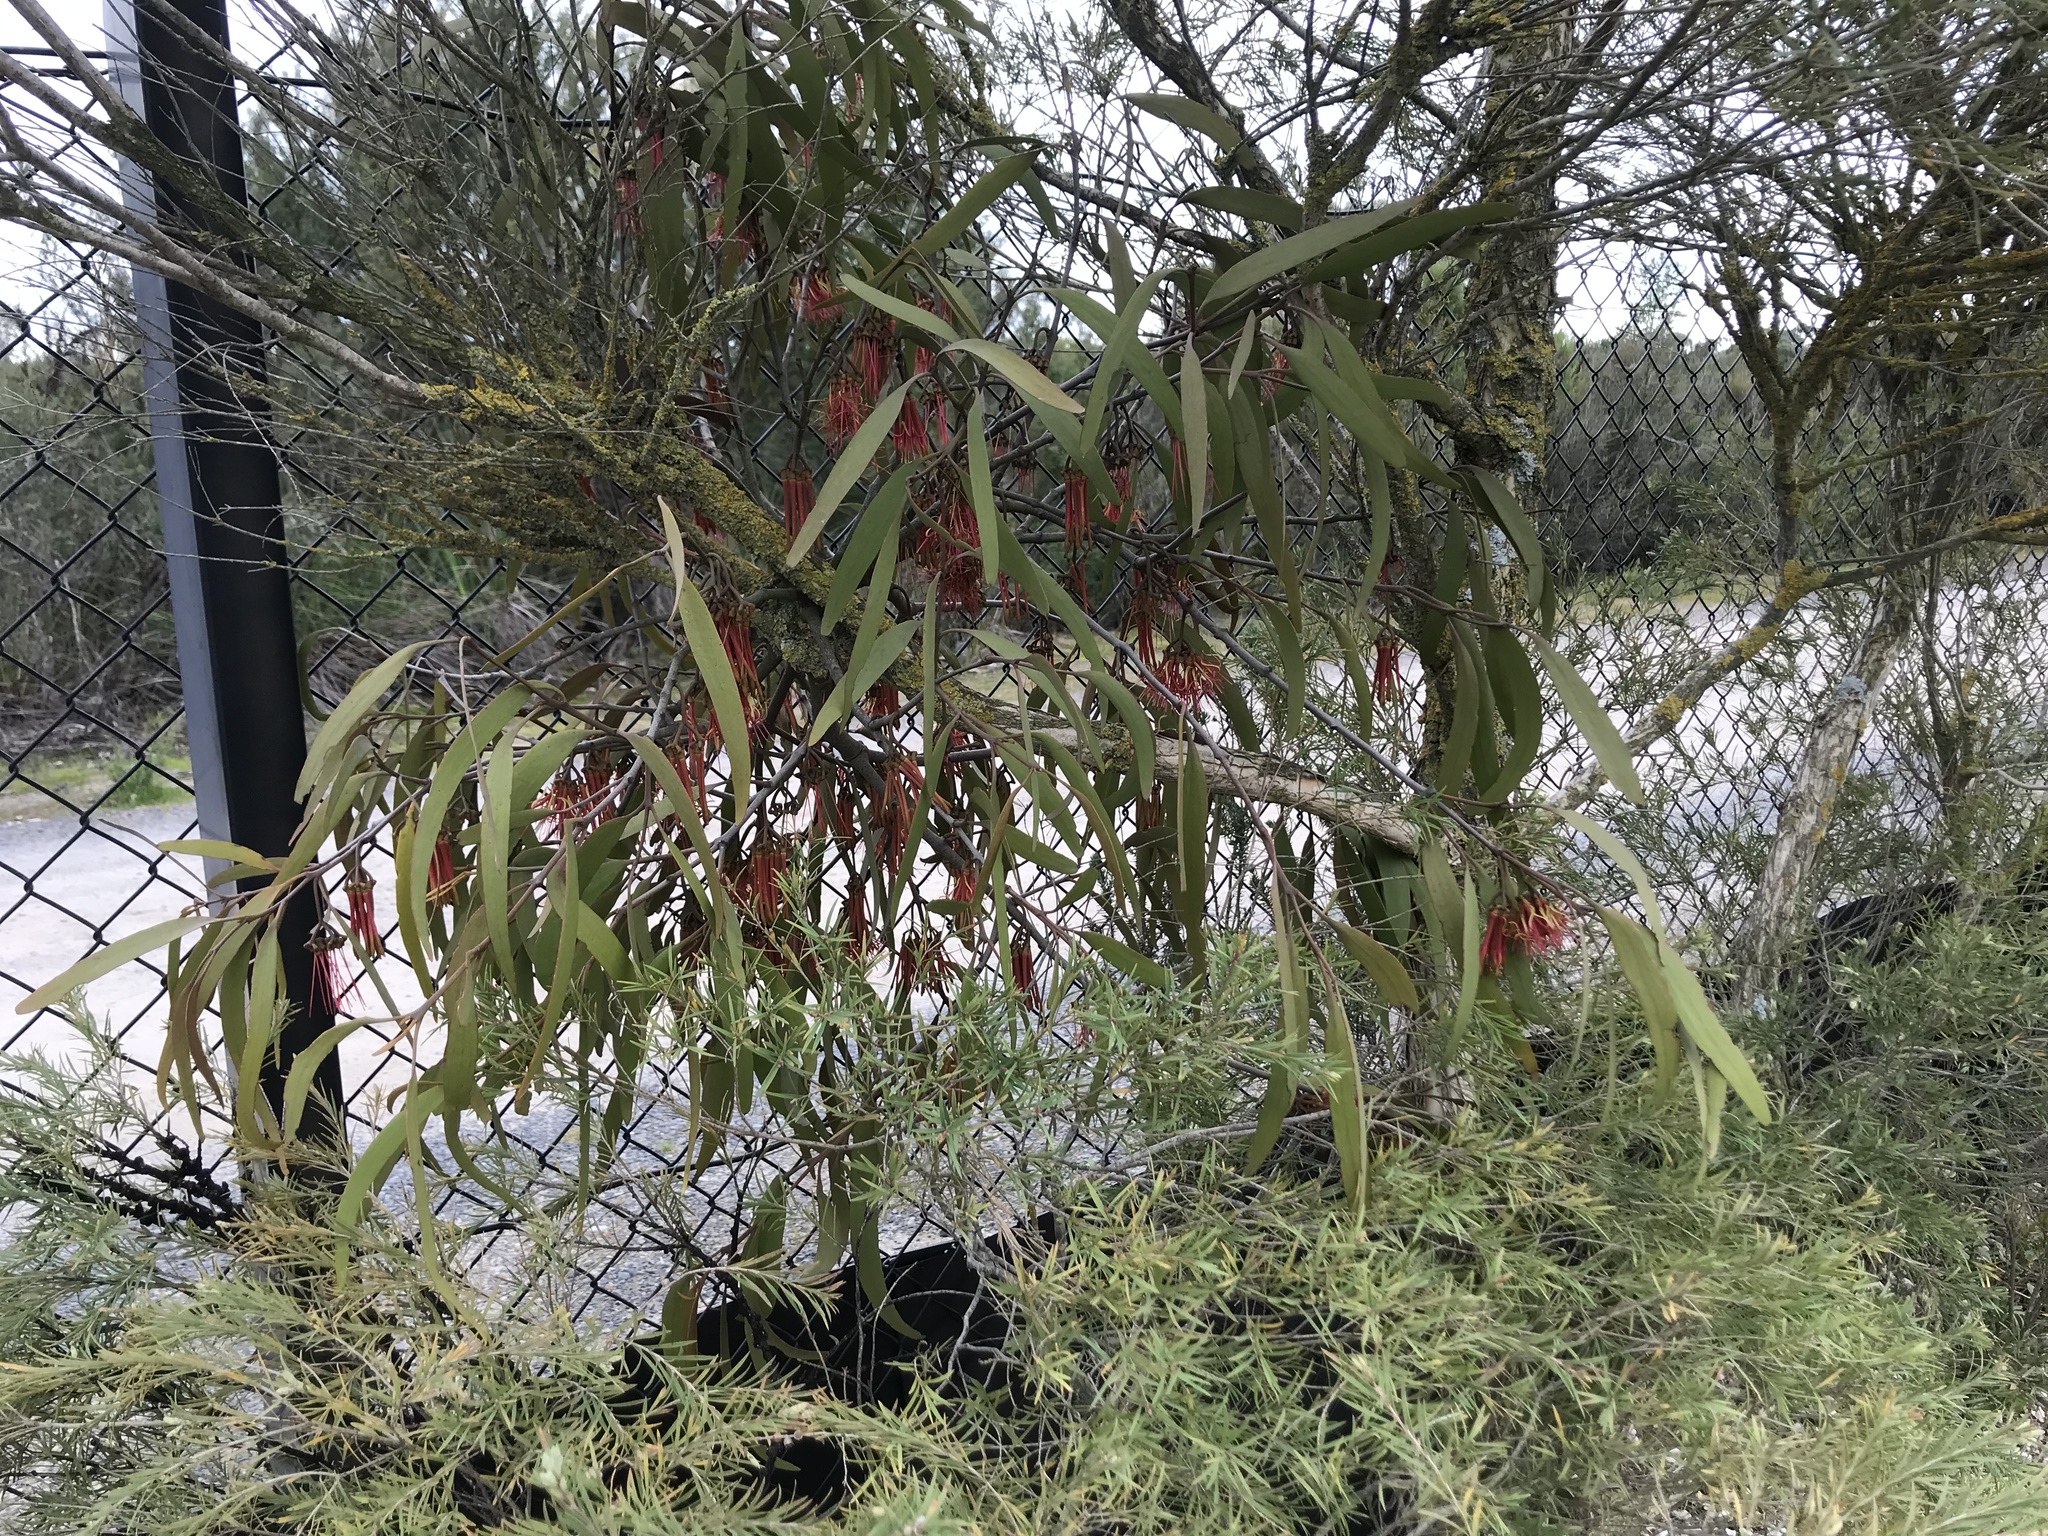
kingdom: Plantae
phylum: Tracheophyta
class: Magnoliopsida
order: Santalales
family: Loranthaceae
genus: Amyema
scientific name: Amyema pendula
